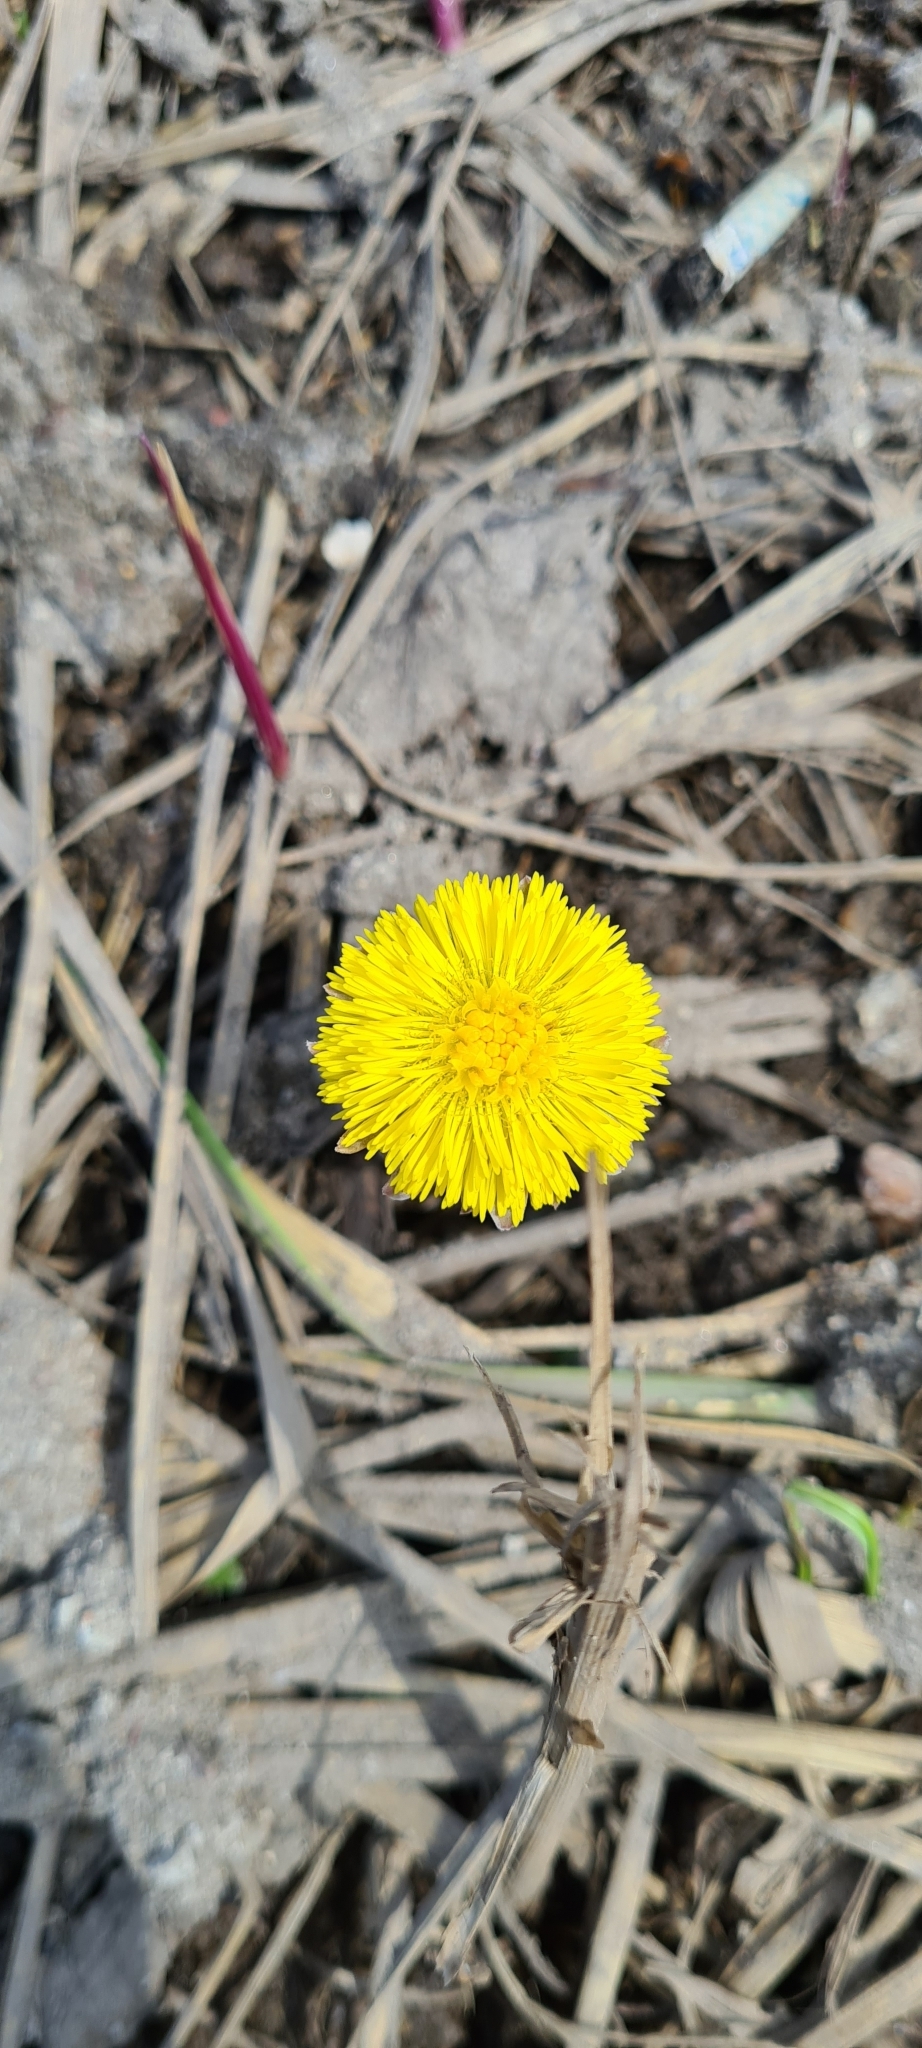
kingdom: Plantae
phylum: Tracheophyta
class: Magnoliopsida
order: Asterales
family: Asteraceae
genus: Tussilago
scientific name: Tussilago farfara
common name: Coltsfoot
